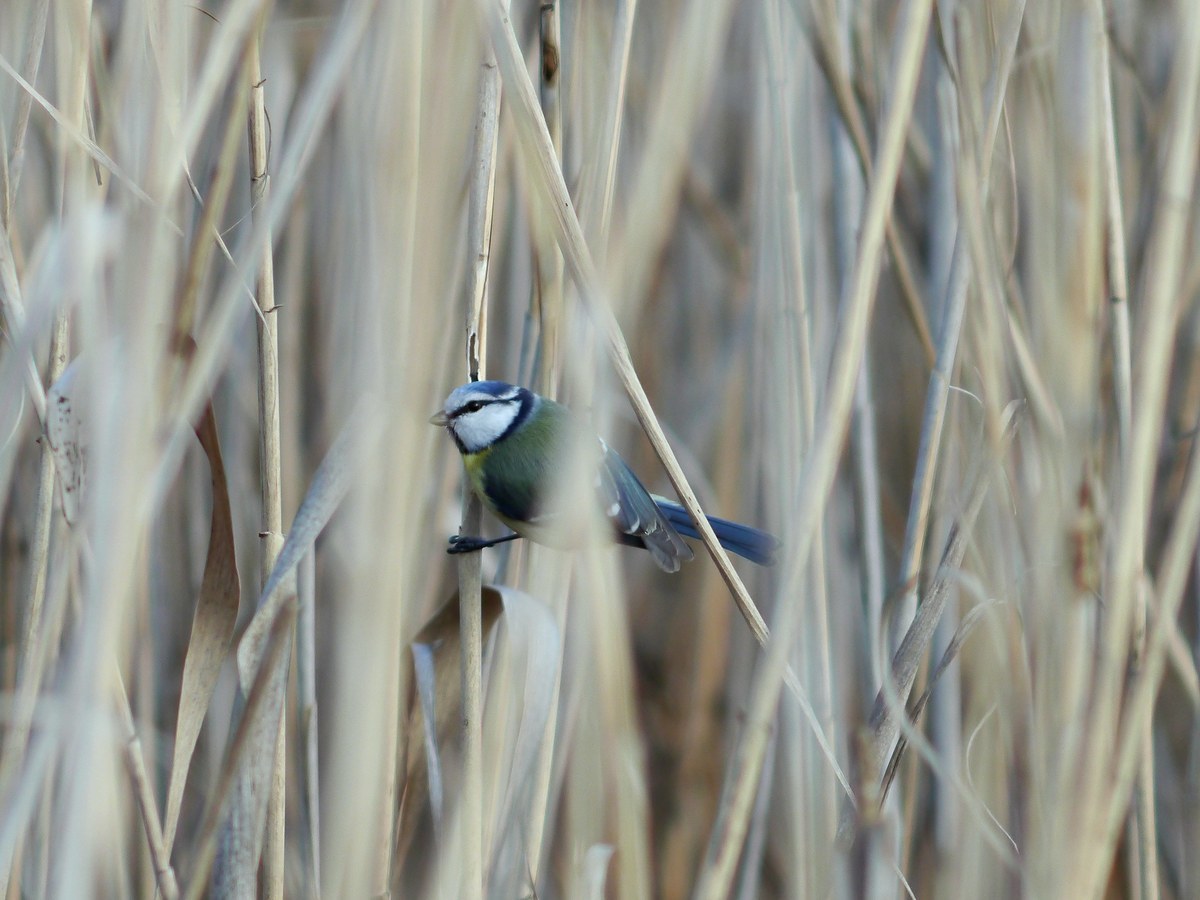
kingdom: Animalia
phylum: Chordata
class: Aves
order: Passeriformes
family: Paridae
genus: Cyanistes
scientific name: Cyanistes caeruleus
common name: Eurasian blue tit
